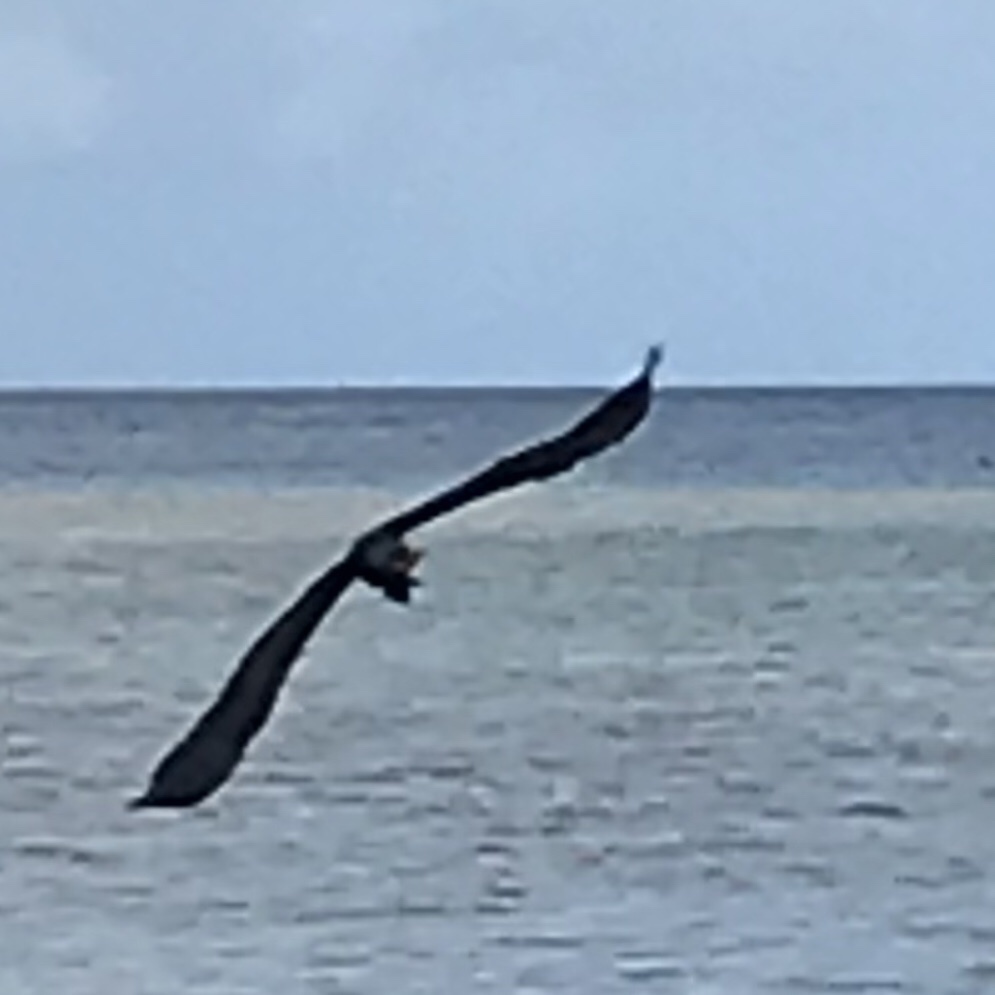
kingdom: Animalia
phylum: Chordata
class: Aves
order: Pelecaniformes
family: Ardeidae
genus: Egretta
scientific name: Egretta sacra
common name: Pacific reef heron
